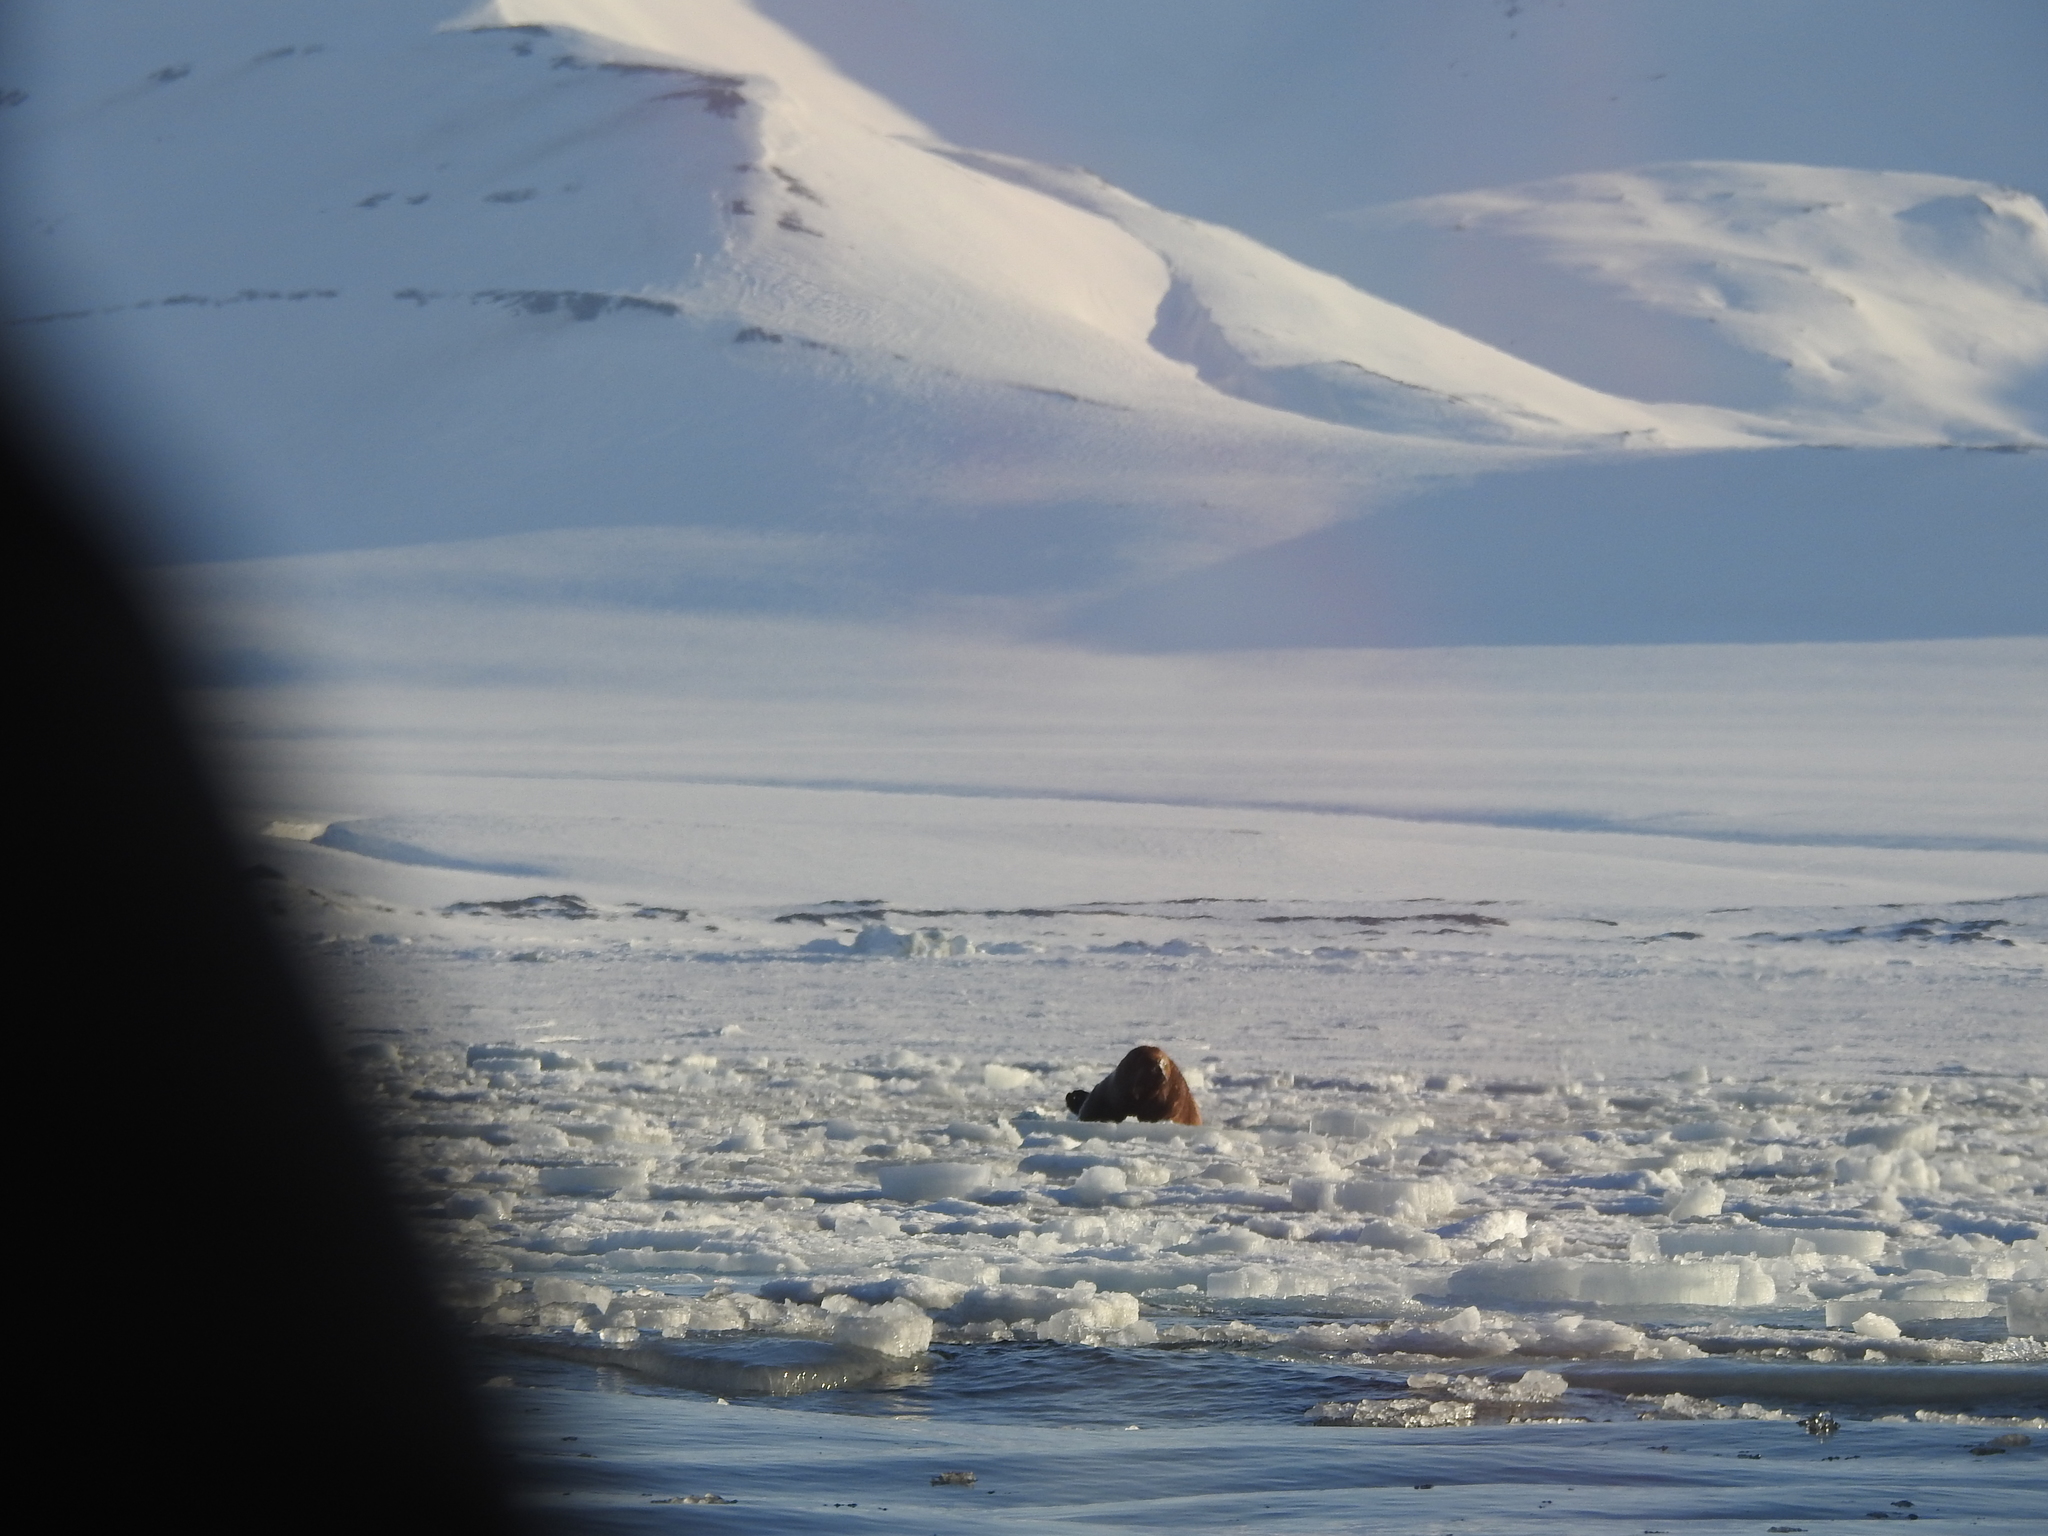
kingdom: Animalia
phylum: Chordata
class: Mammalia
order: Carnivora
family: Odobenidae
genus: Odobenus
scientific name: Odobenus rosmarus
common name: Walrus
